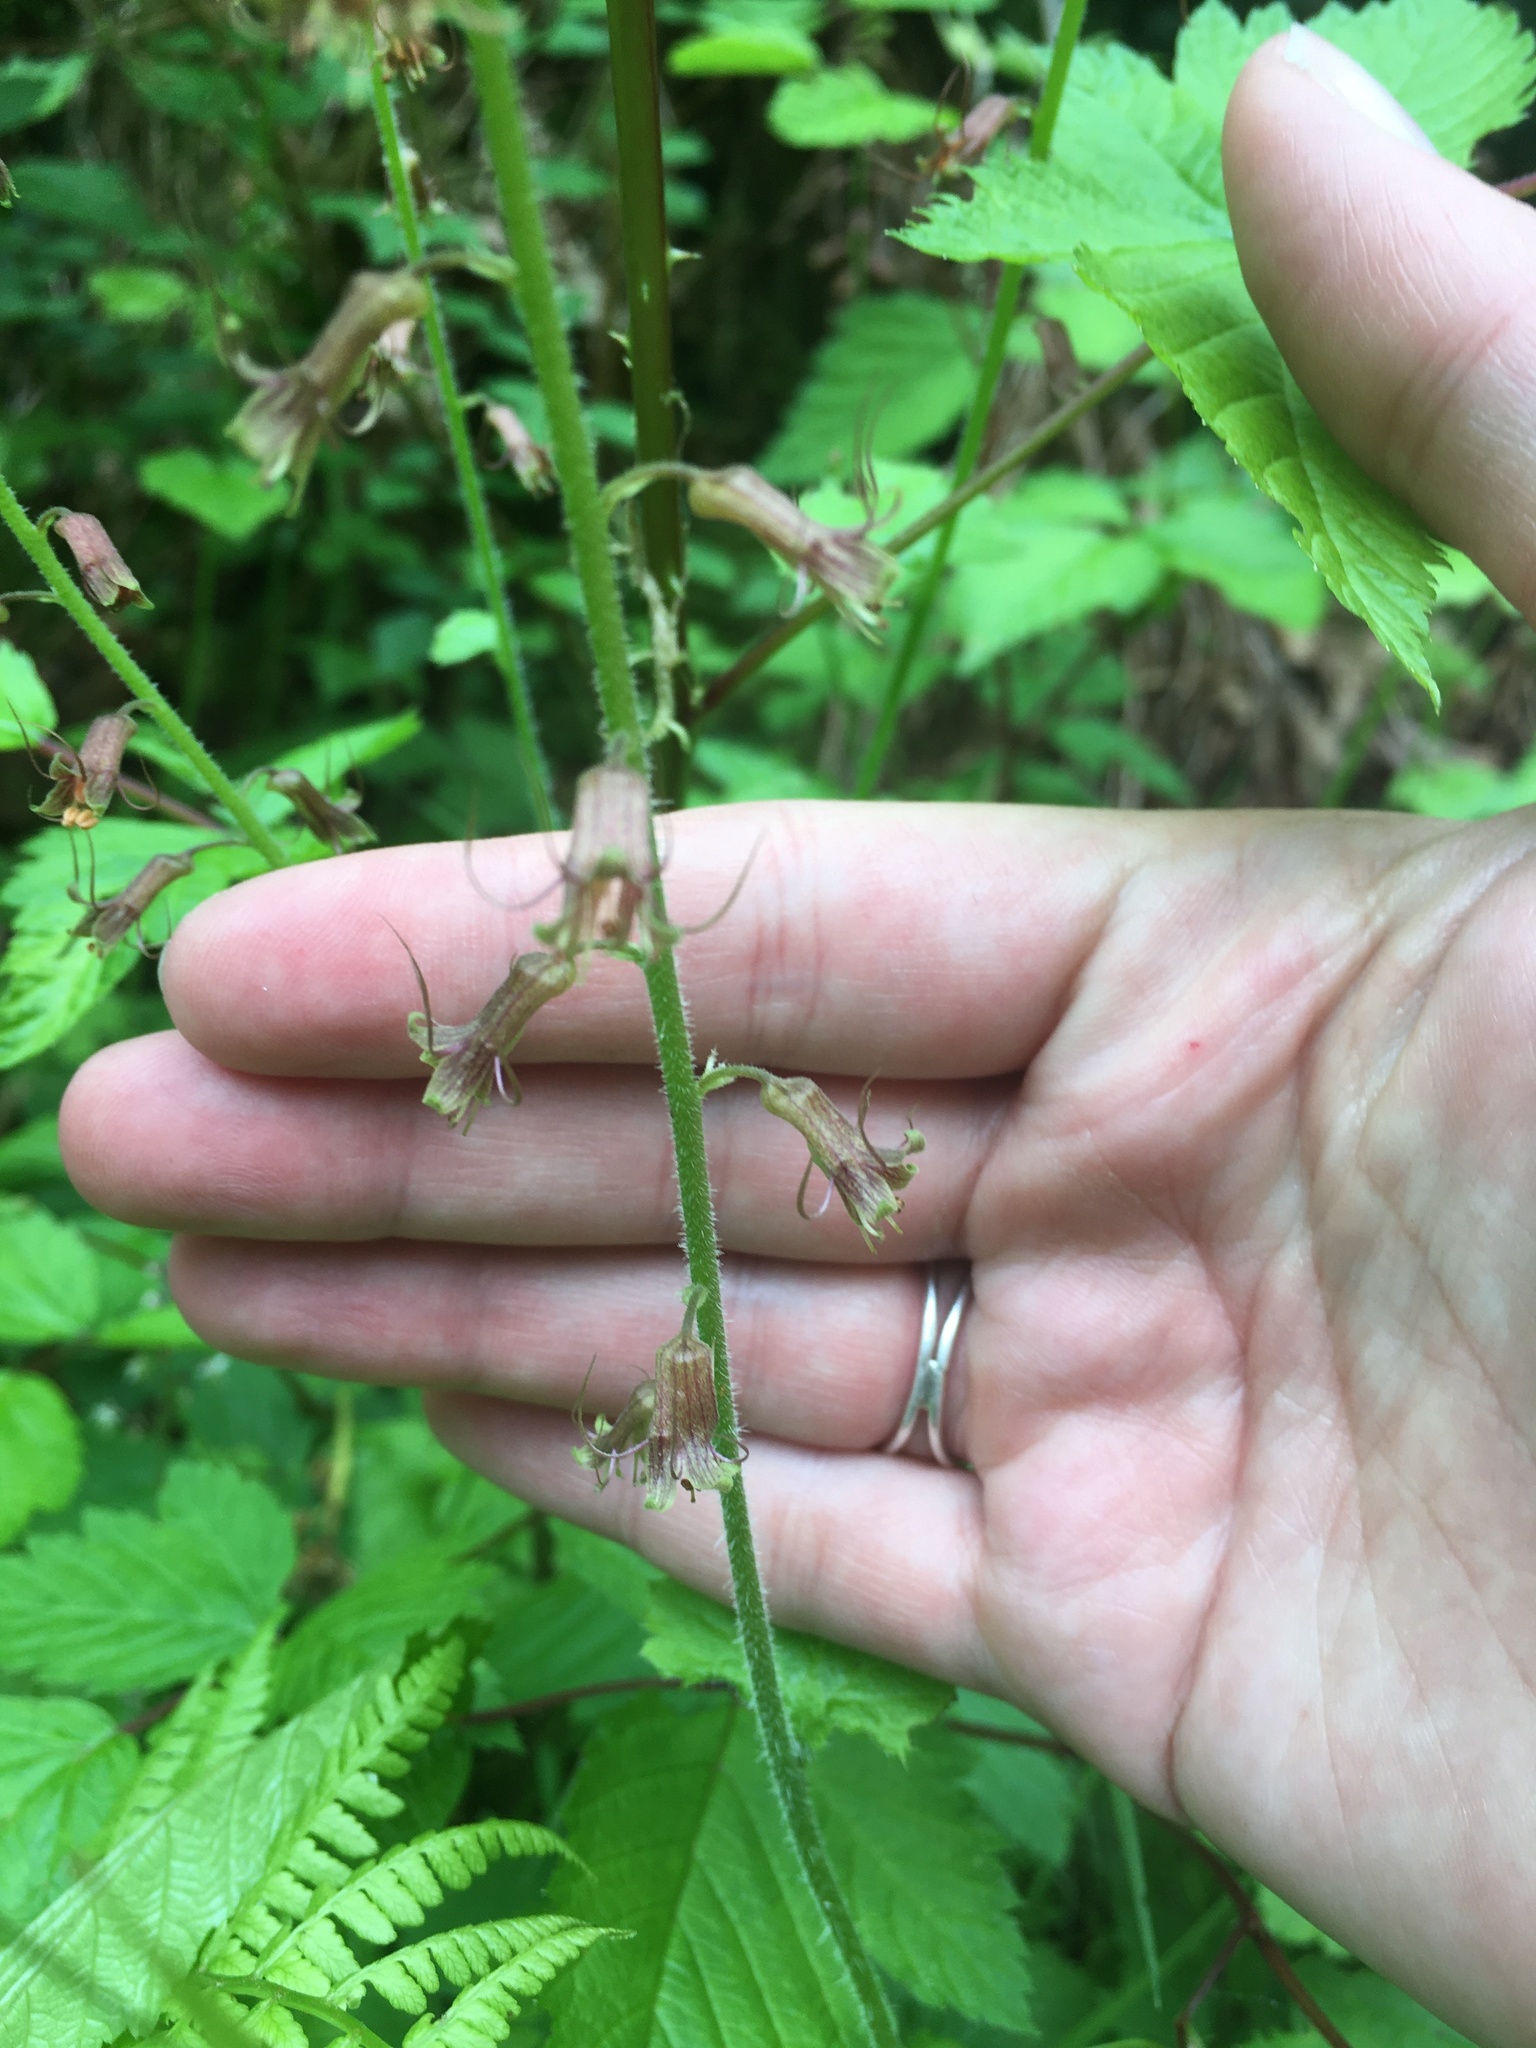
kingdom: Plantae
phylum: Tracheophyta
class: Magnoliopsida
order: Saxifragales
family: Saxifragaceae
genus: Tolmiea
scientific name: Tolmiea menziesii
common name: Pick-a-back-plant
